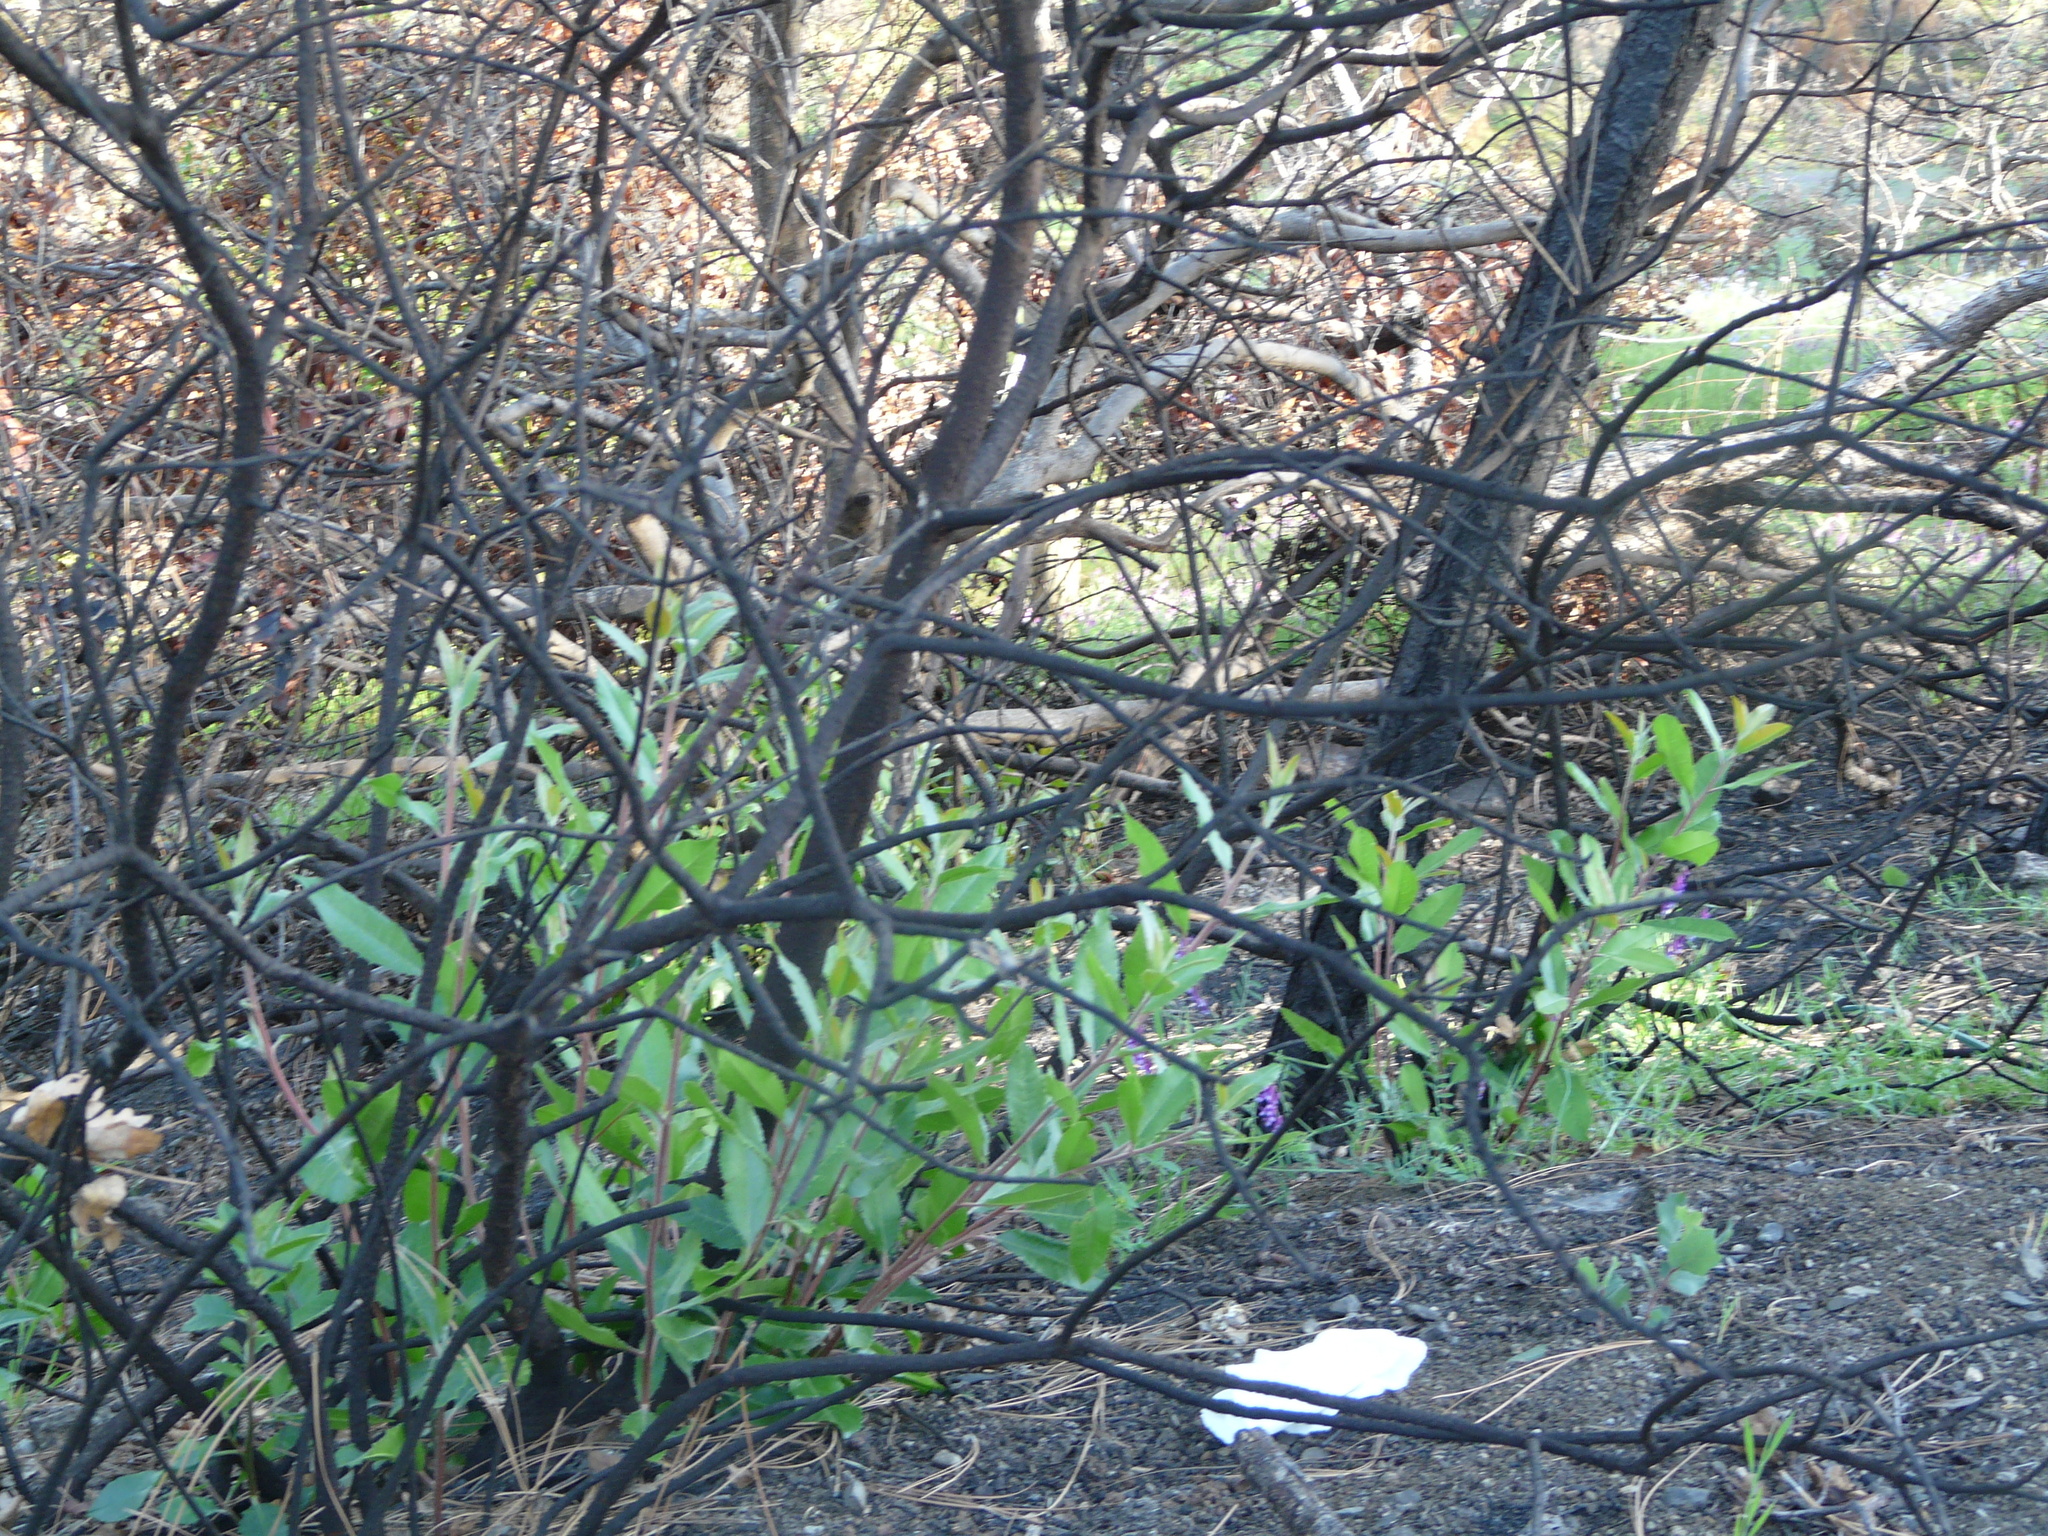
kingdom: Plantae
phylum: Tracheophyta
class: Magnoliopsida
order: Rosales
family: Rosaceae
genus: Heteromeles
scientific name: Heteromeles arbutifolia
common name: California-holly
